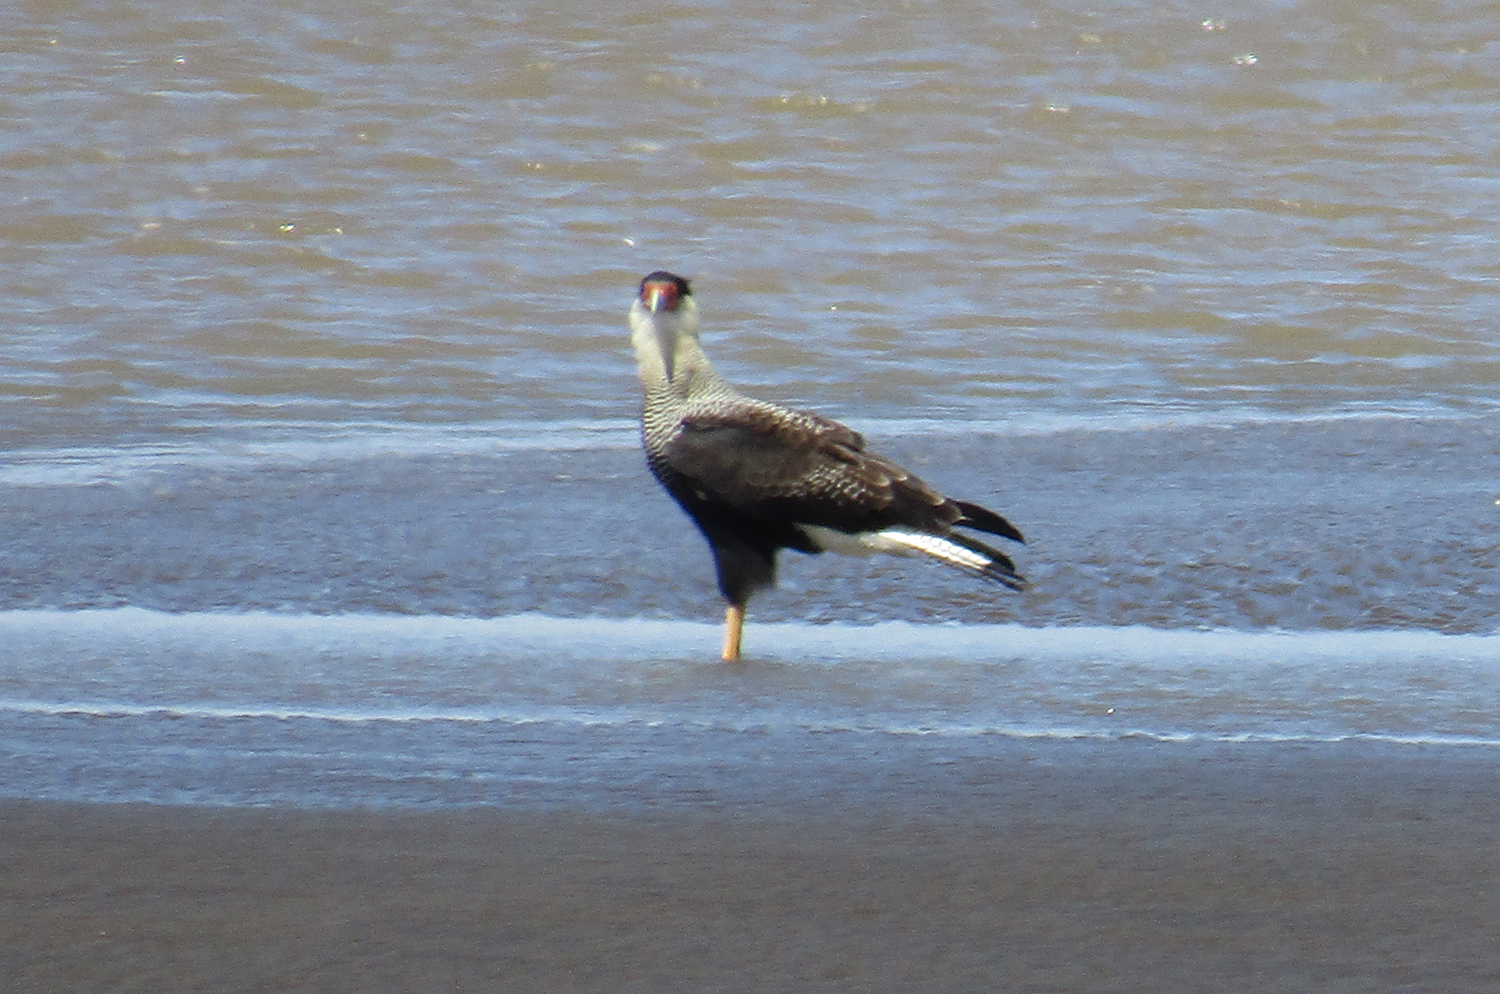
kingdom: Animalia
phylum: Chordata
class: Aves
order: Falconiformes
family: Falconidae
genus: Caracara
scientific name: Caracara plancus
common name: Southern caracara
